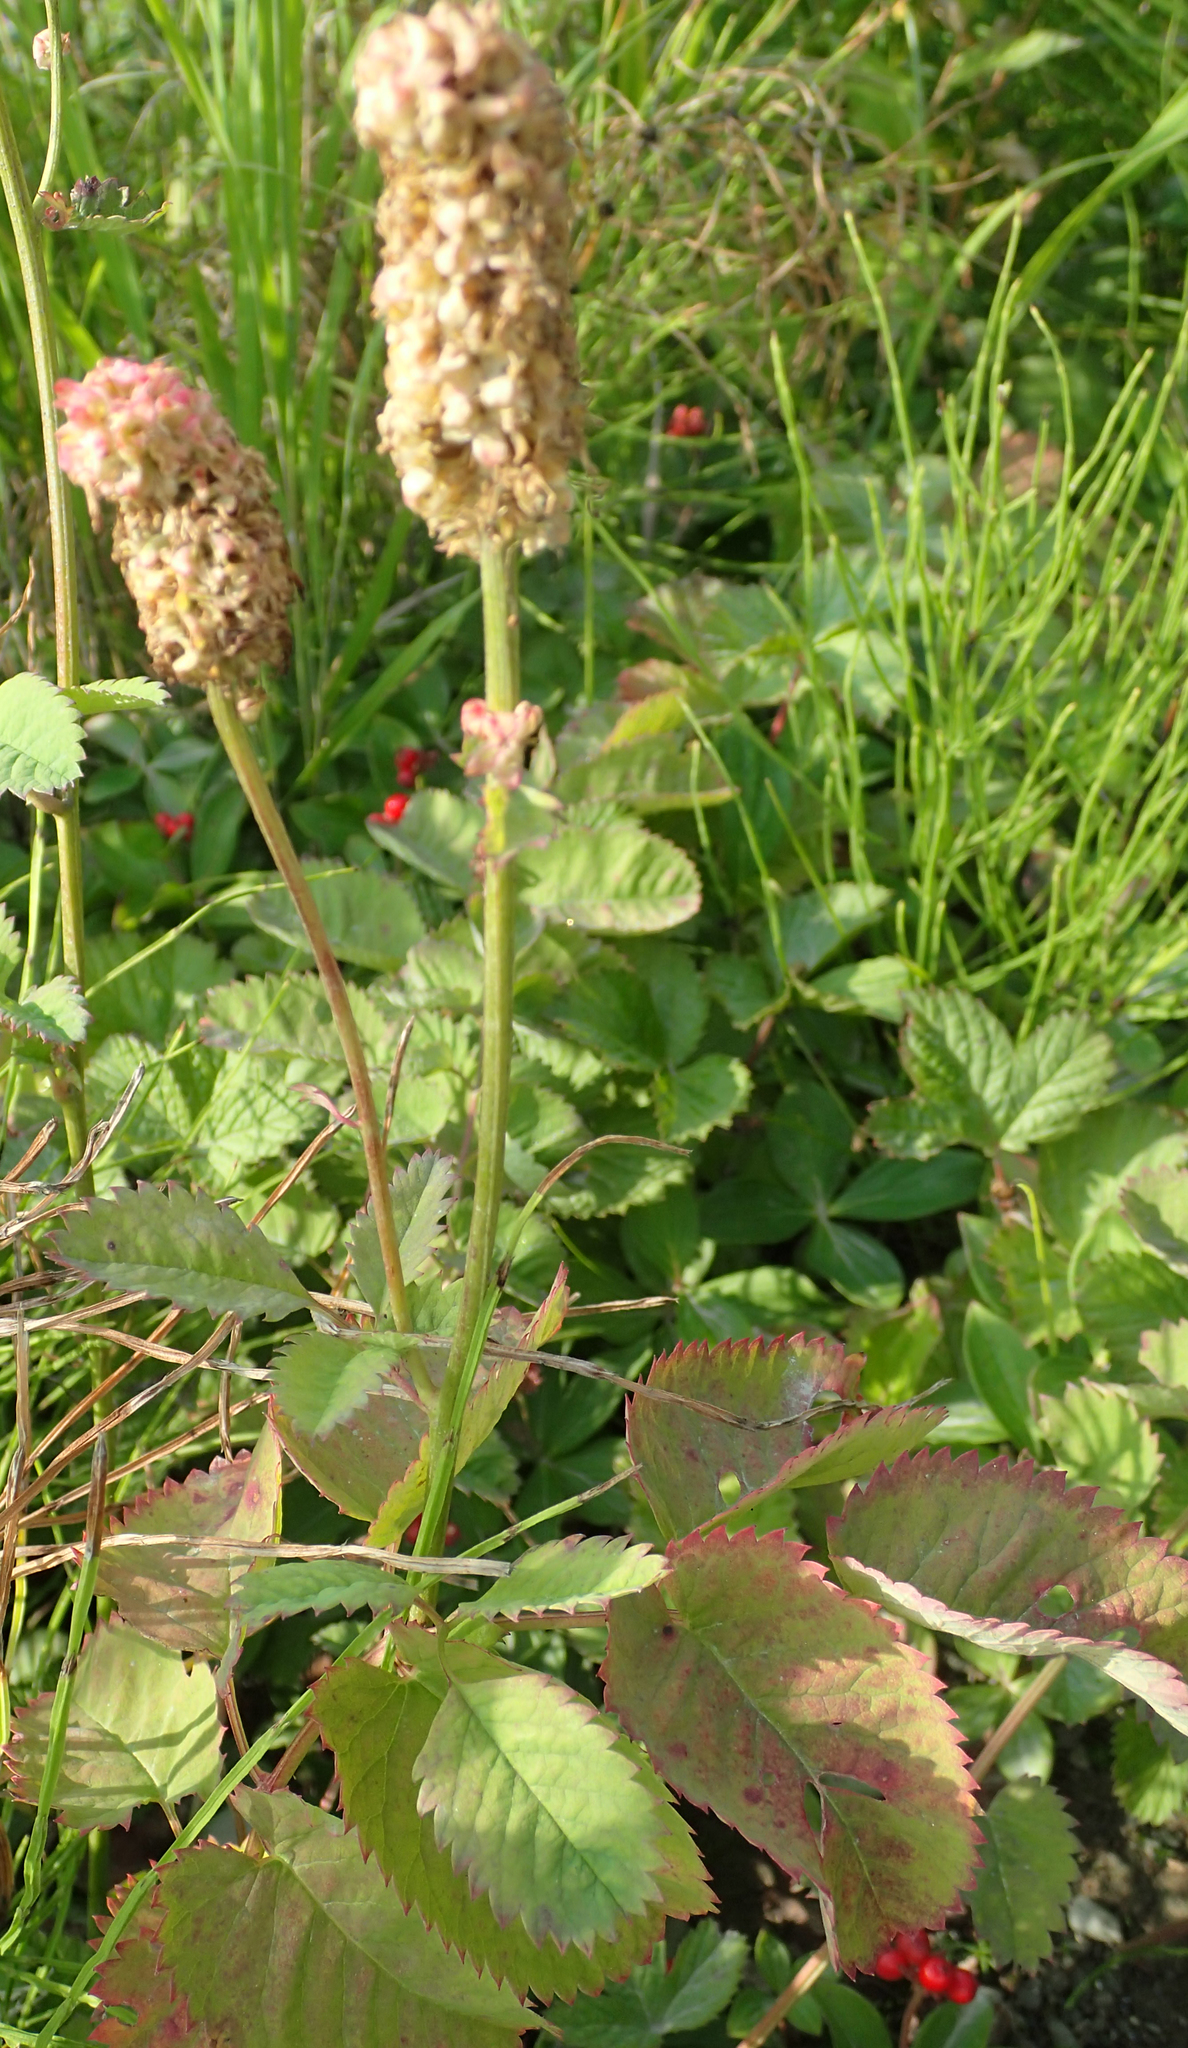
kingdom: Plantae
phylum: Tracheophyta
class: Magnoliopsida
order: Rosales
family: Rosaceae
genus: Sanguisorba
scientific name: Sanguisorba stipulata
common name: Sitka burnet
